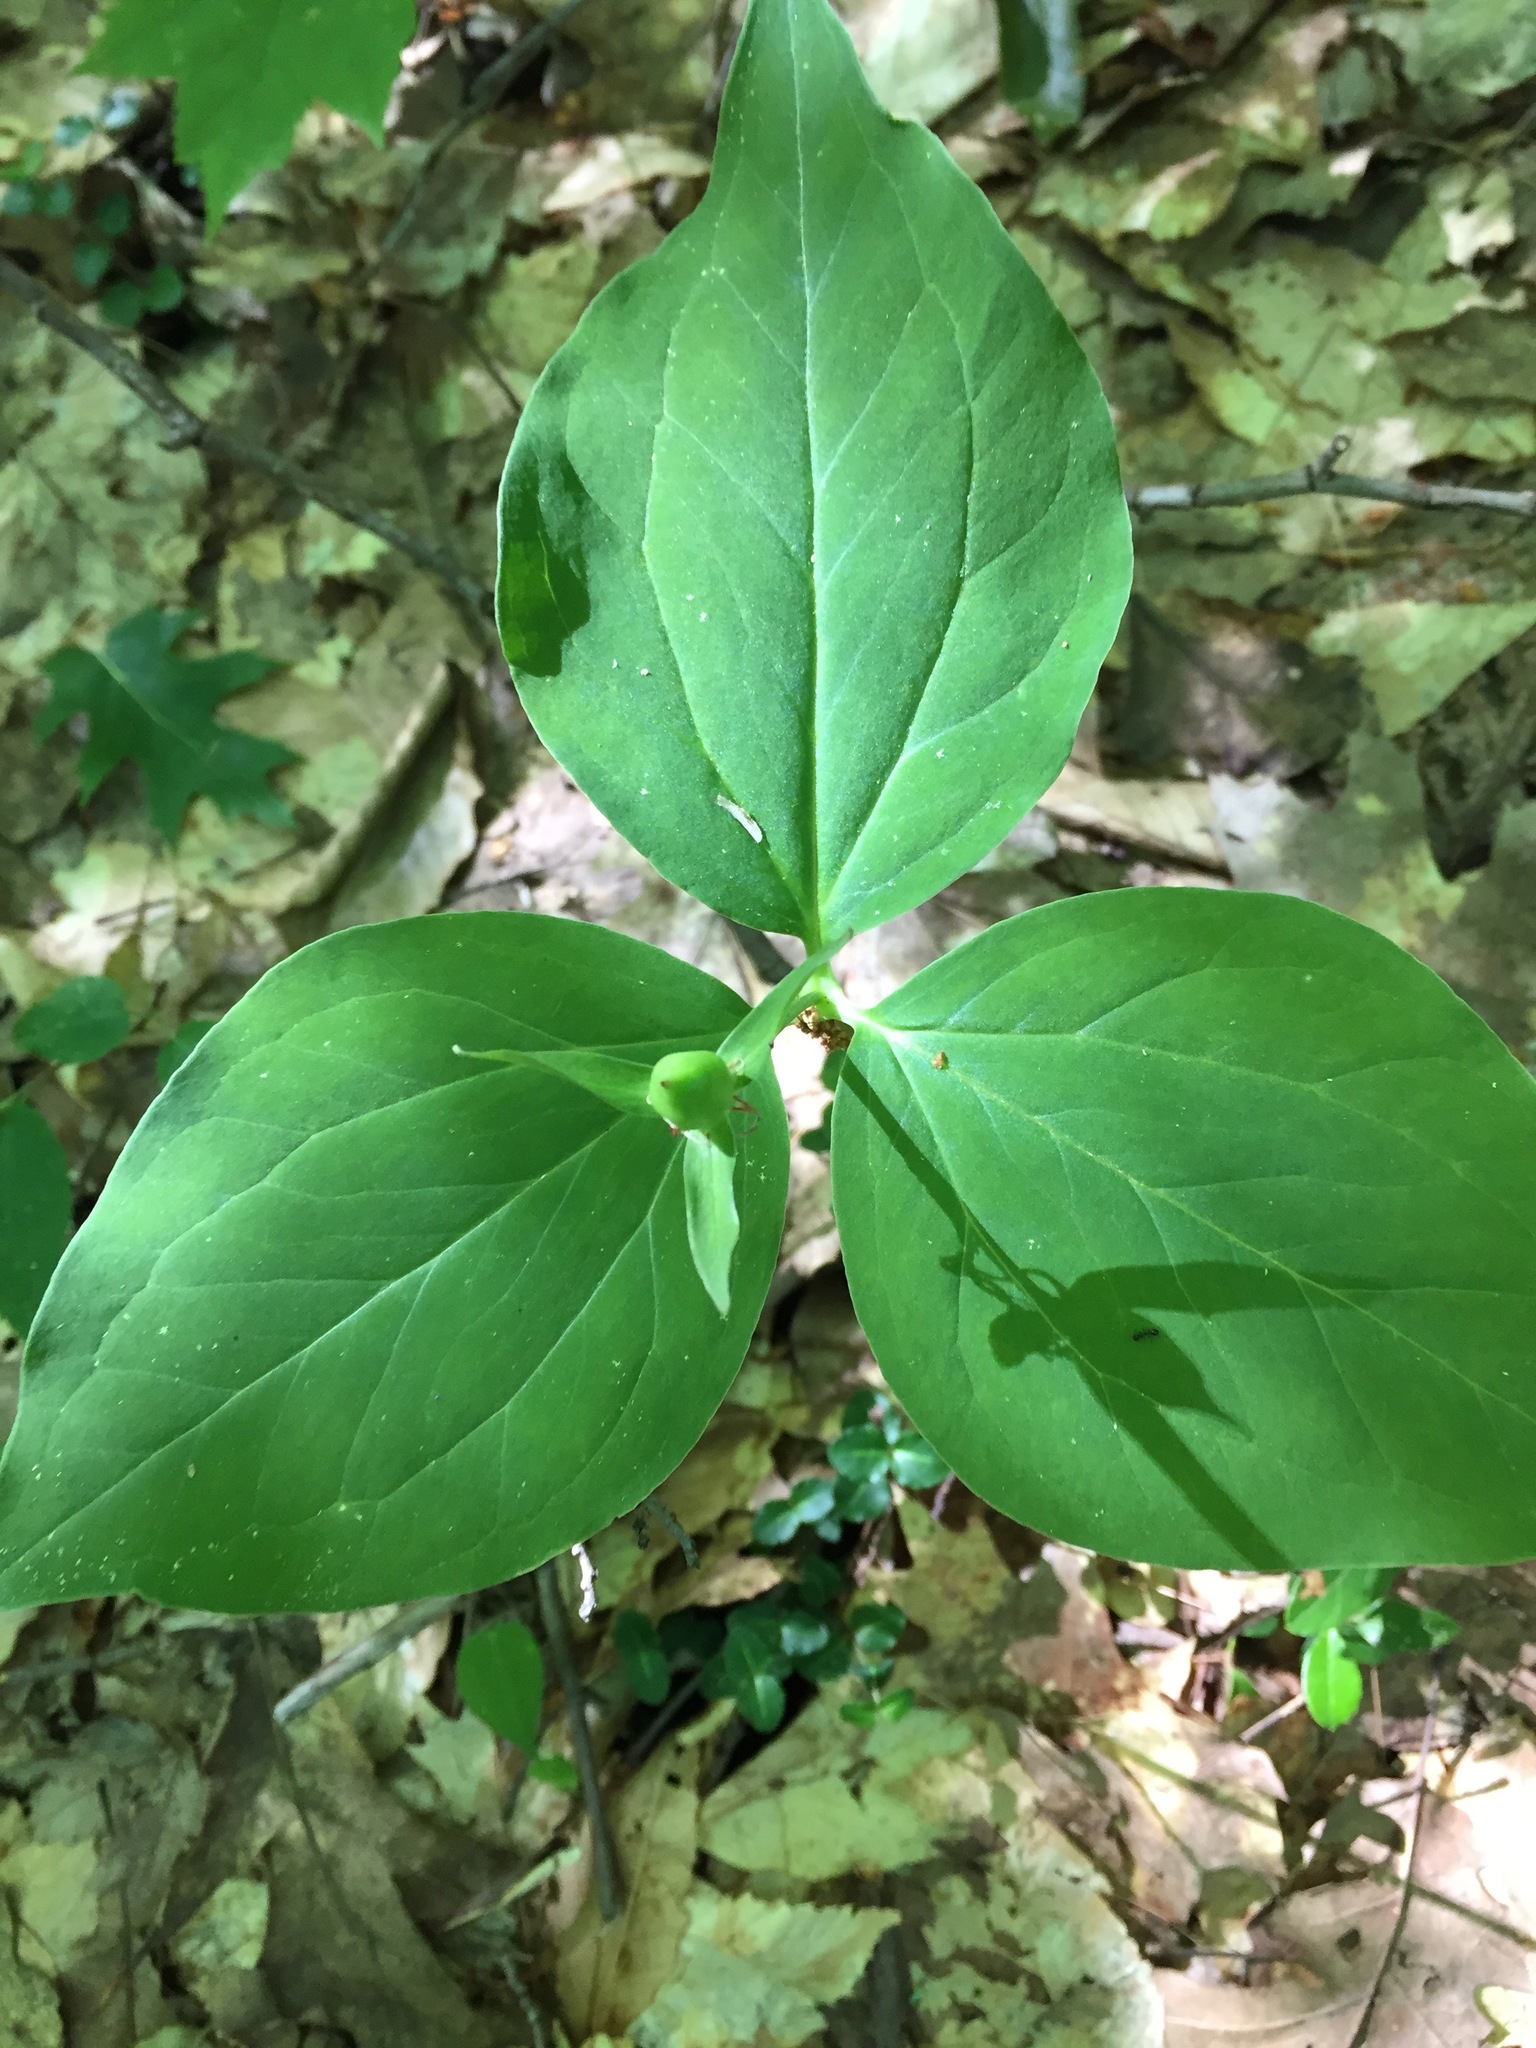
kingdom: Plantae
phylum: Tracheophyta
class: Liliopsida
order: Liliales
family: Melanthiaceae
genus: Trillium
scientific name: Trillium undulatum
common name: Paint trillium
